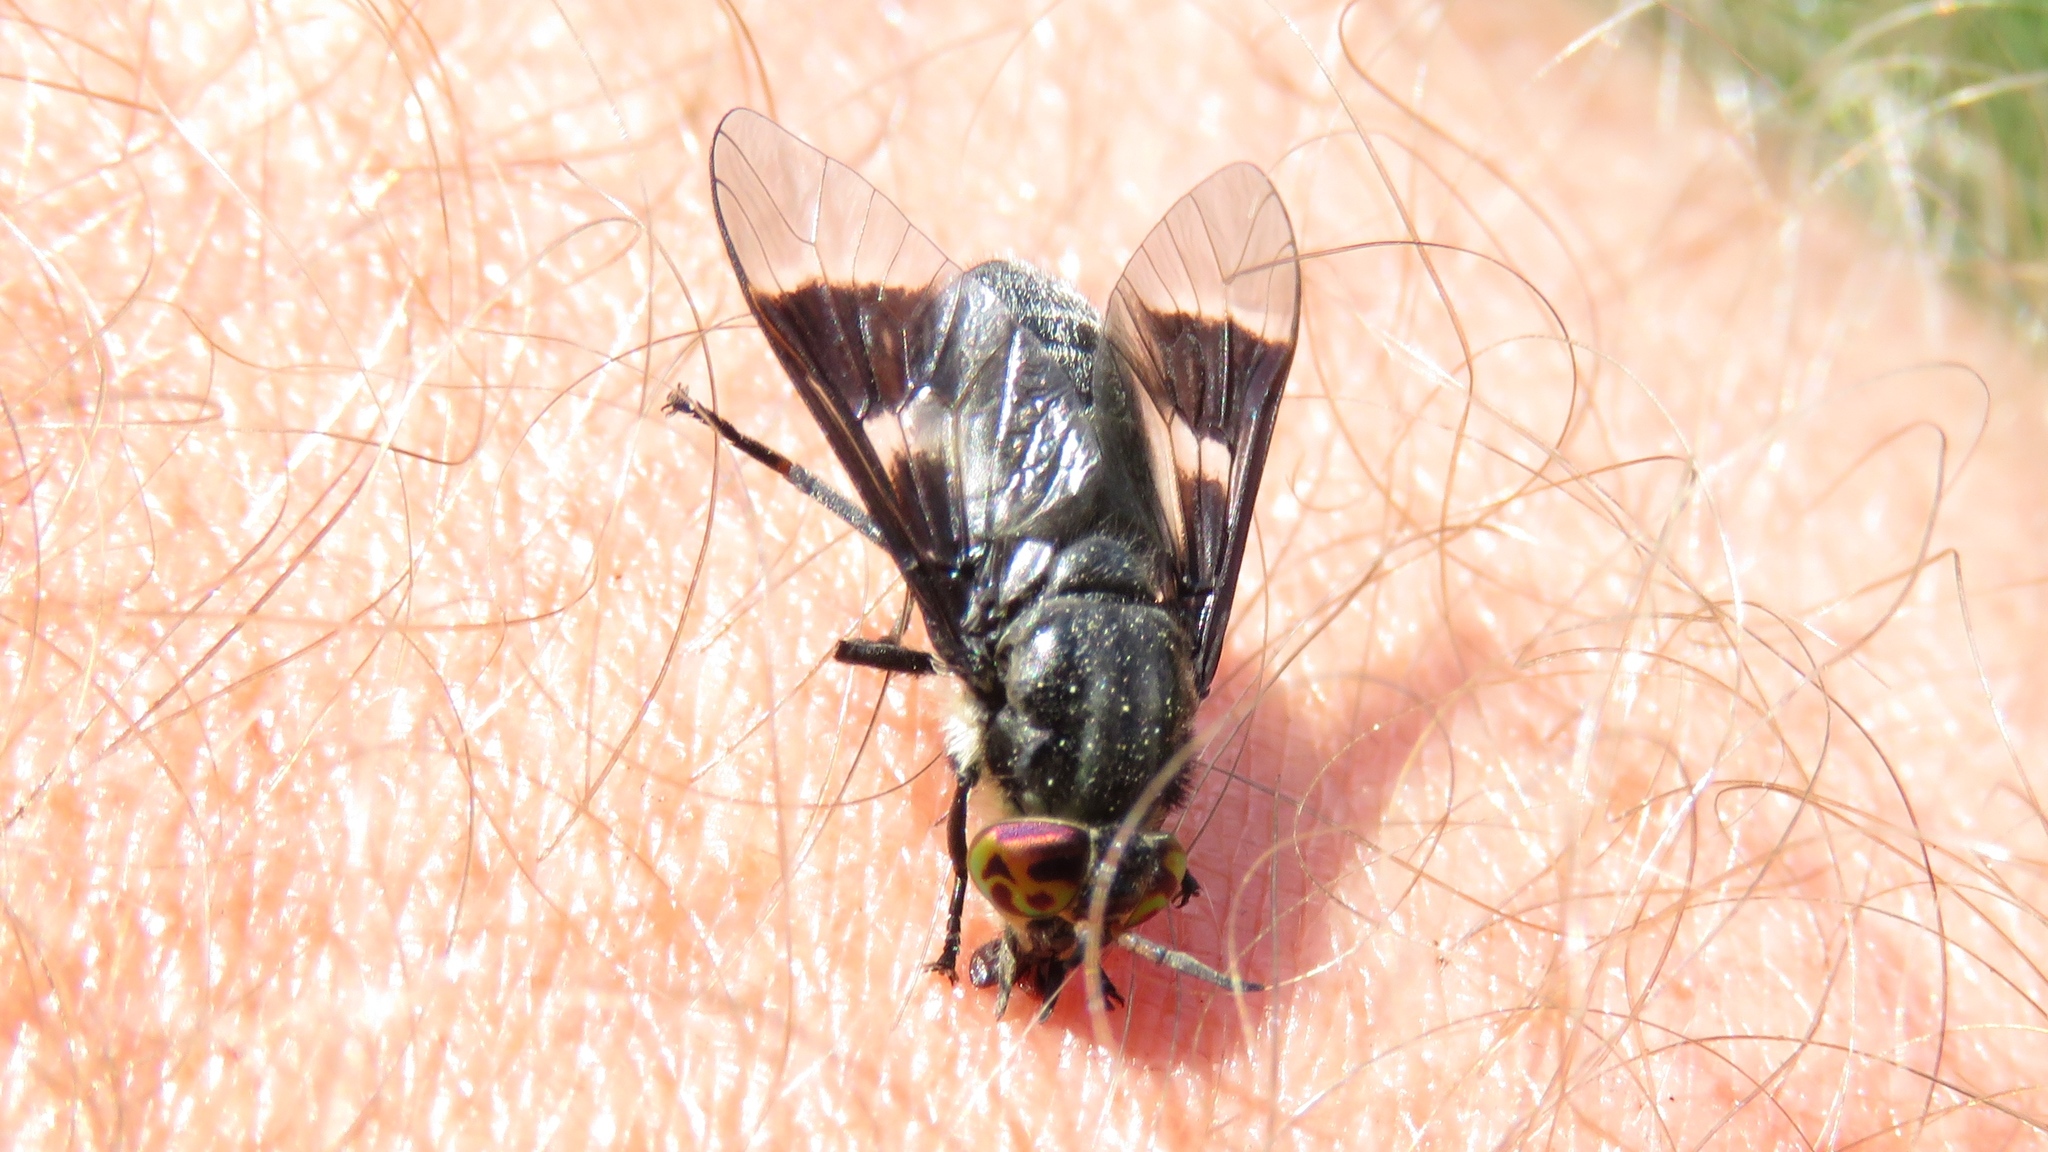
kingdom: Animalia
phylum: Arthropoda
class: Insecta
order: Diptera
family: Tabanidae
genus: Chrysops
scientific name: Chrysops ater
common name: Dark deer fly
